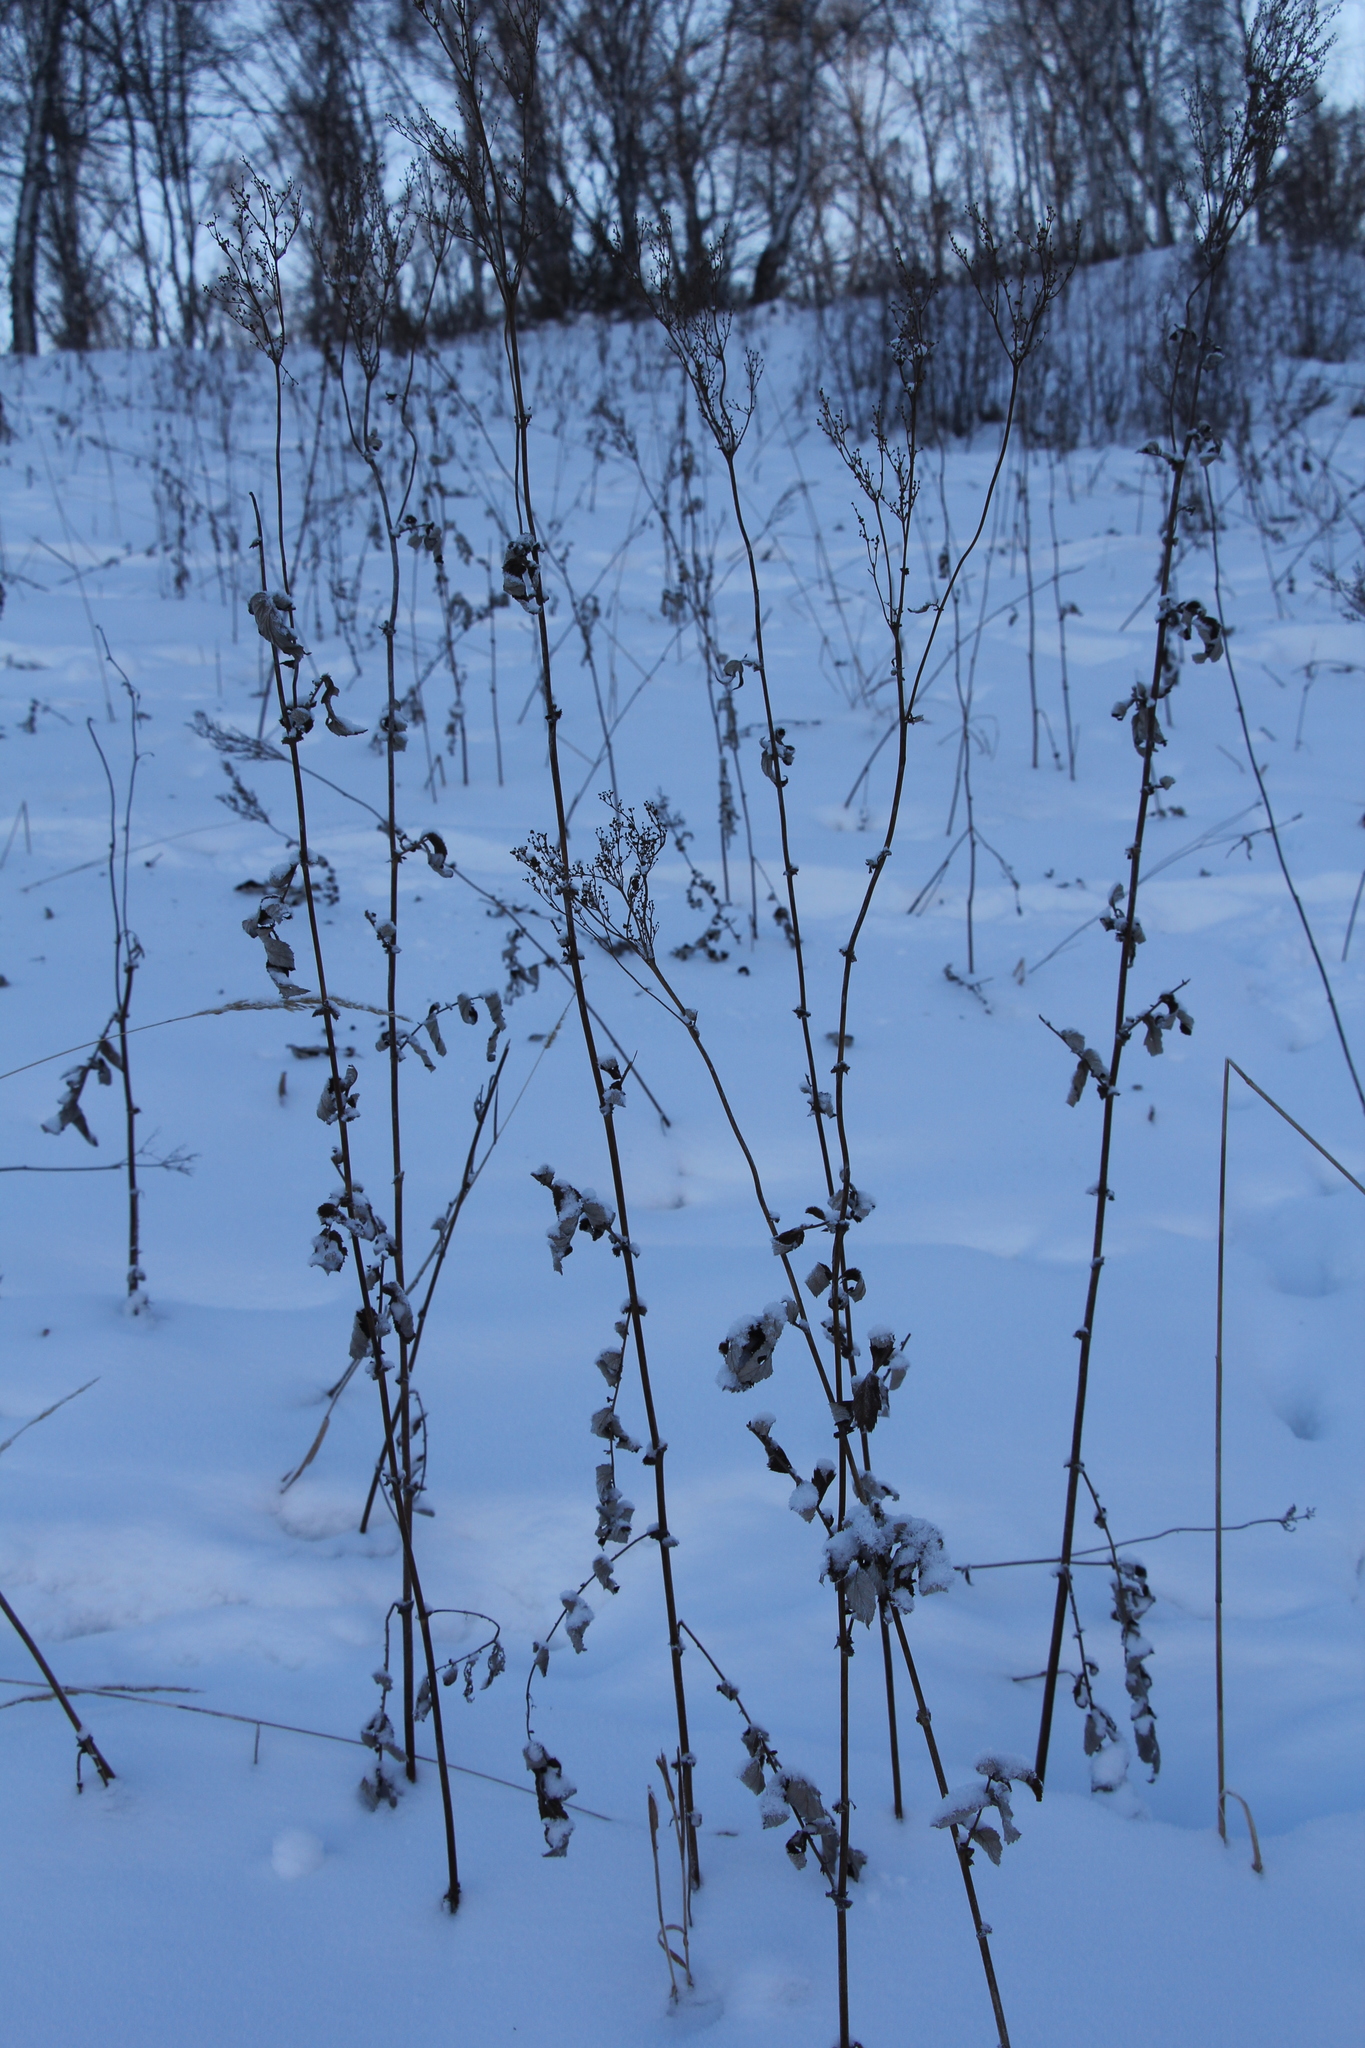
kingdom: Plantae
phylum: Tracheophyta
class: Magnoliopsida
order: Rosales
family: Rosaceae
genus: Filipendula
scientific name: Filipendula ulmaria
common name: Meadowsweet
